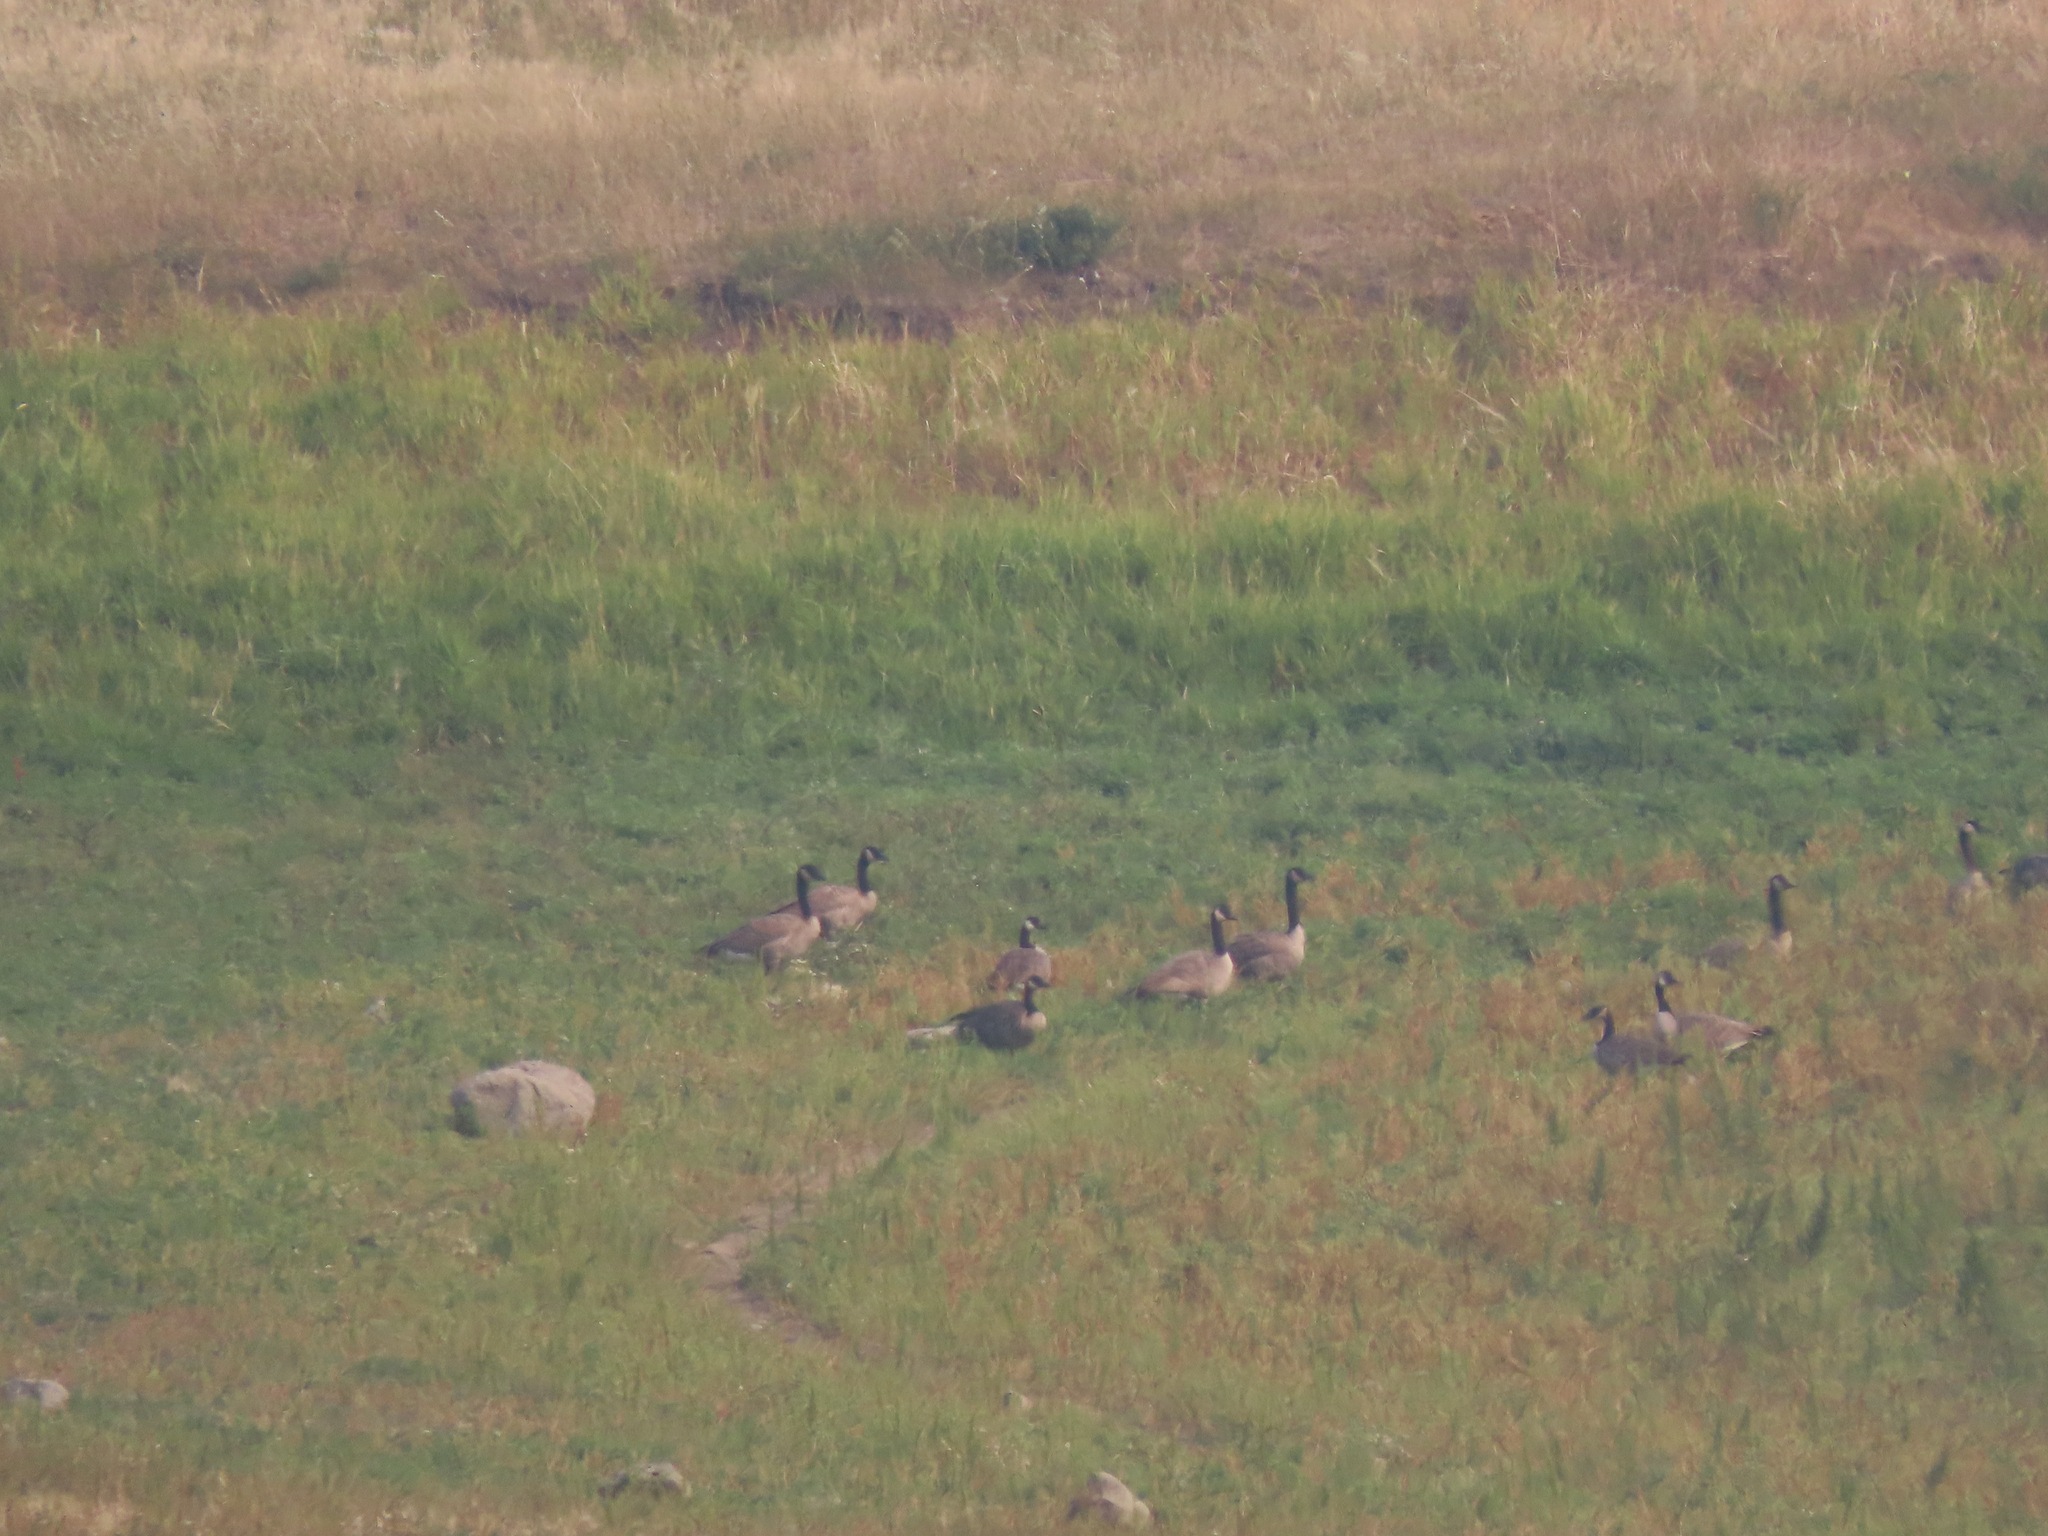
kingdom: Animalia
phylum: Chordata
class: Aves
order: Anseriformes
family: Anatidae
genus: Branta
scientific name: Branta canadensis
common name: Canada goose
